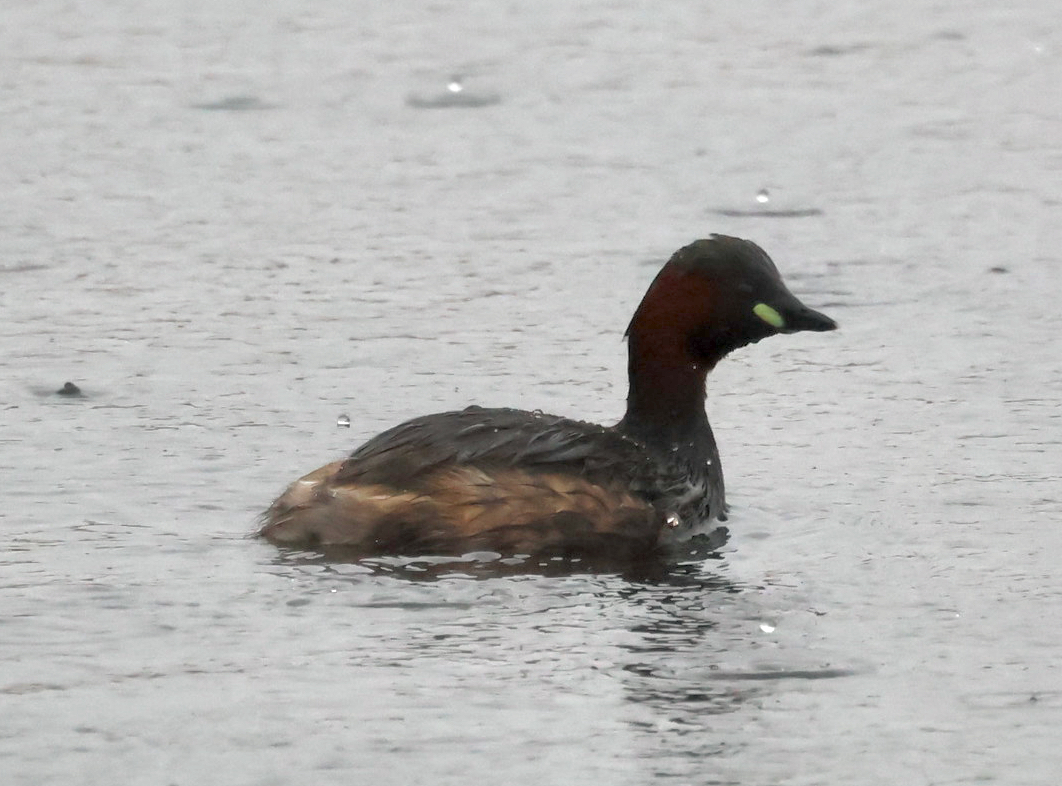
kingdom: Animalia
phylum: Chordata
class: Aves
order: Podicipediformes
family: Podicipedidae
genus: Tachybaptus
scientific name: Tachybaptus ruficollis
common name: Little grebe
